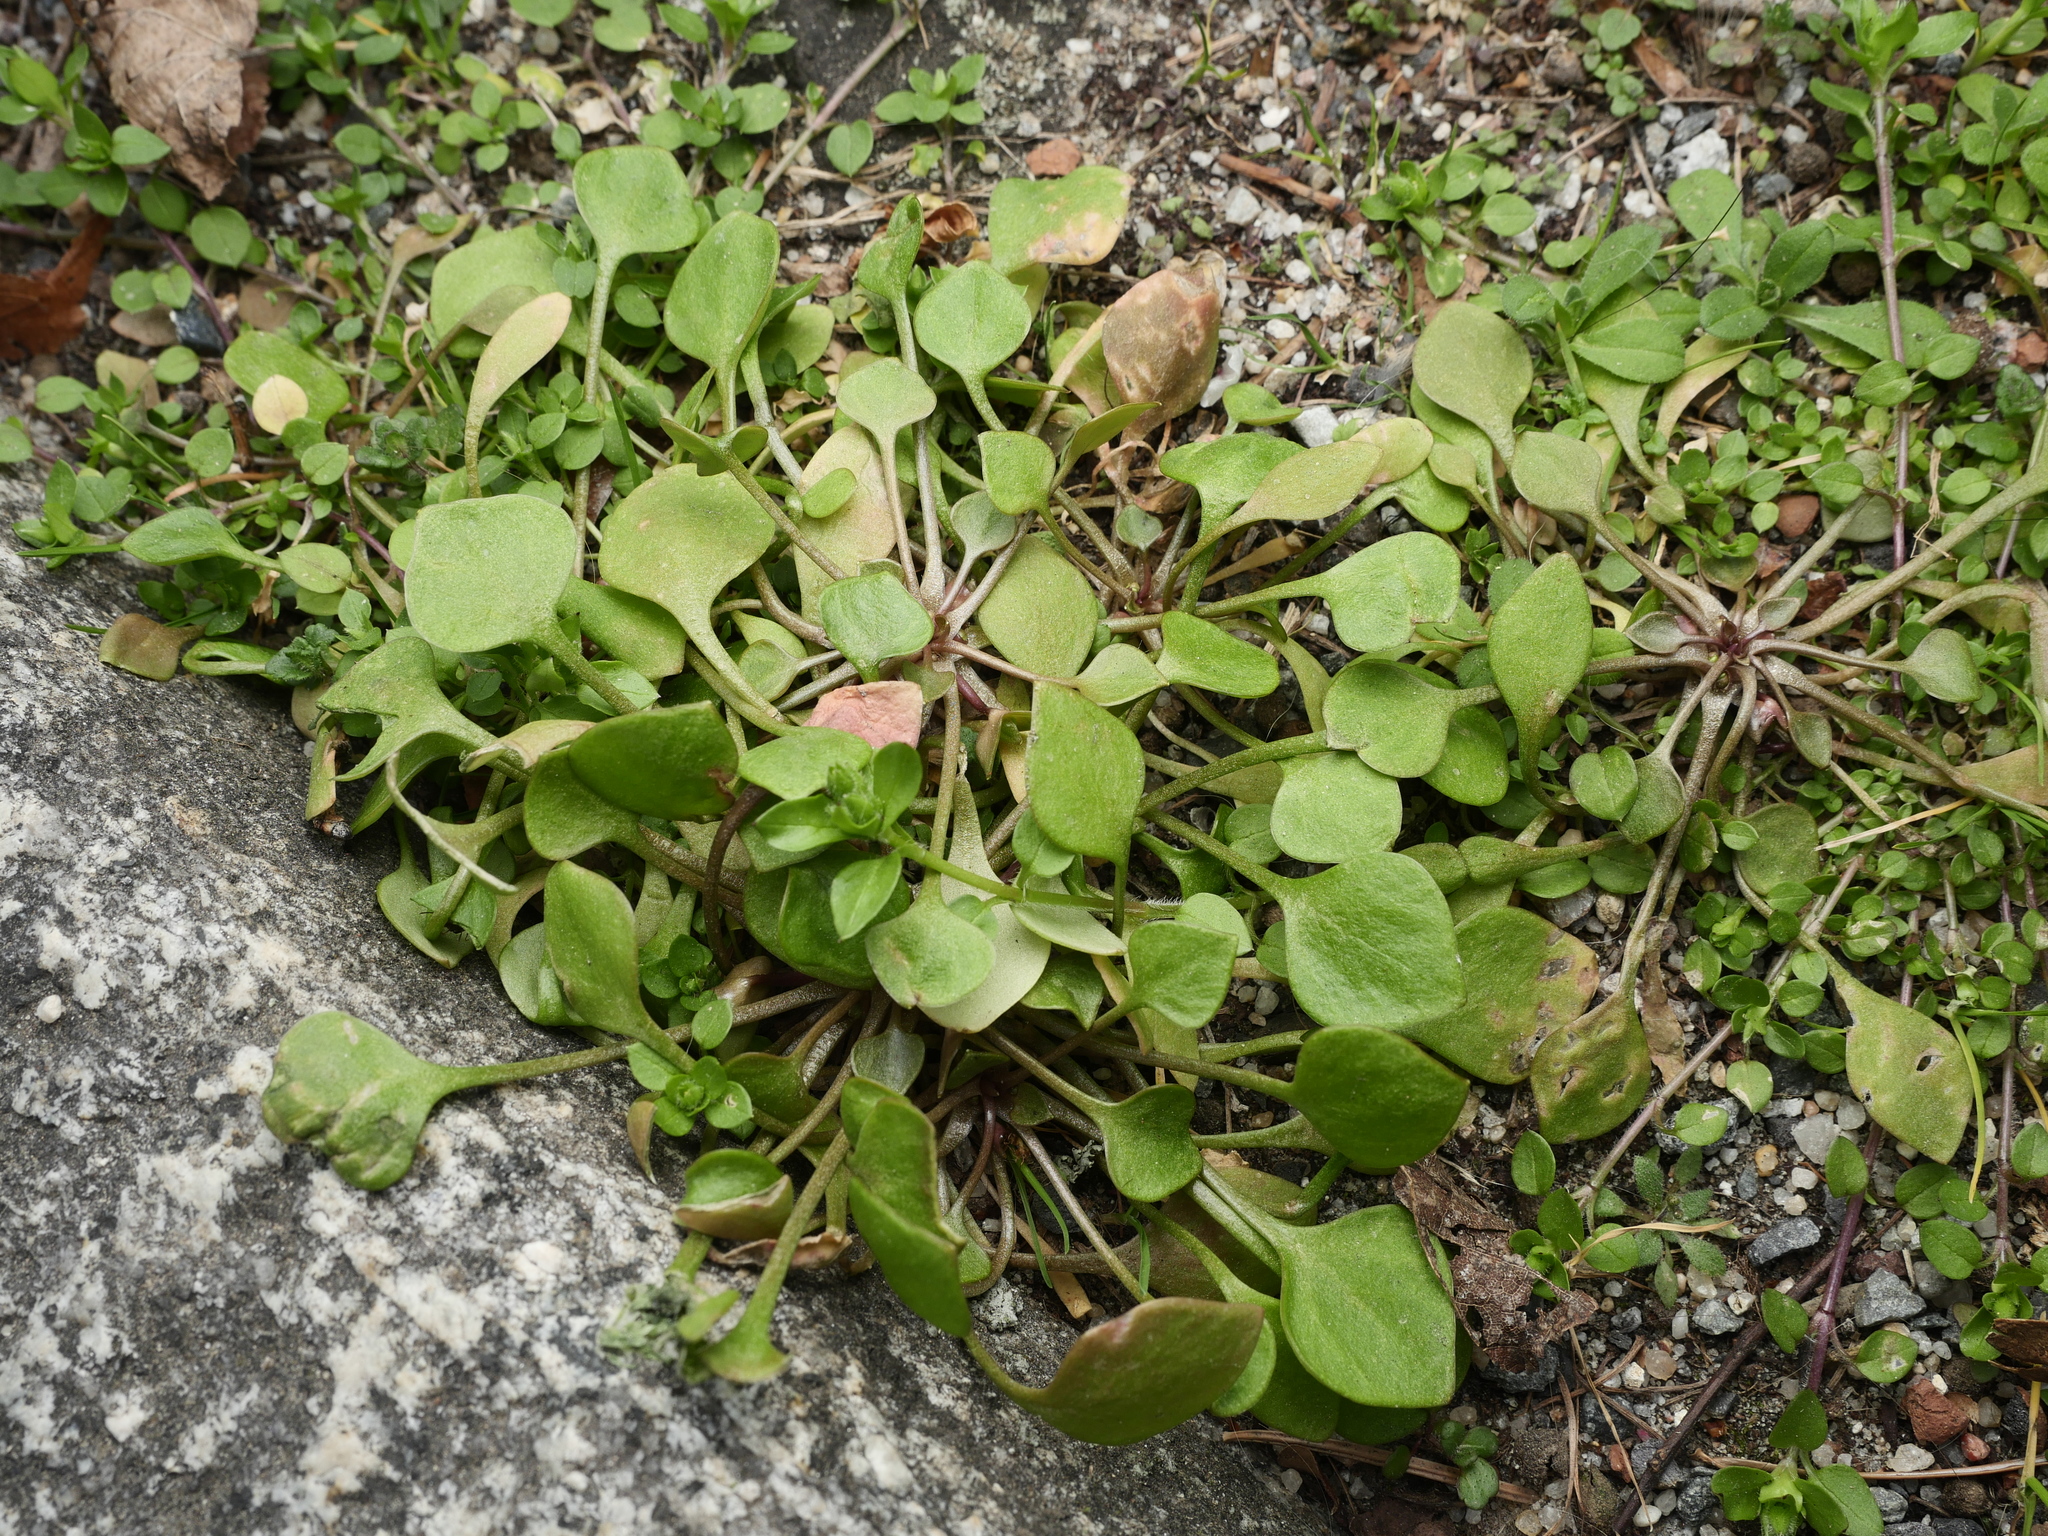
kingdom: Plantae
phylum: Tracheophyta
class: Magnoliopsida
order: Caryophyllales
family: Montiaceae
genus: Claytonia
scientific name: Claytonia perfoliata
